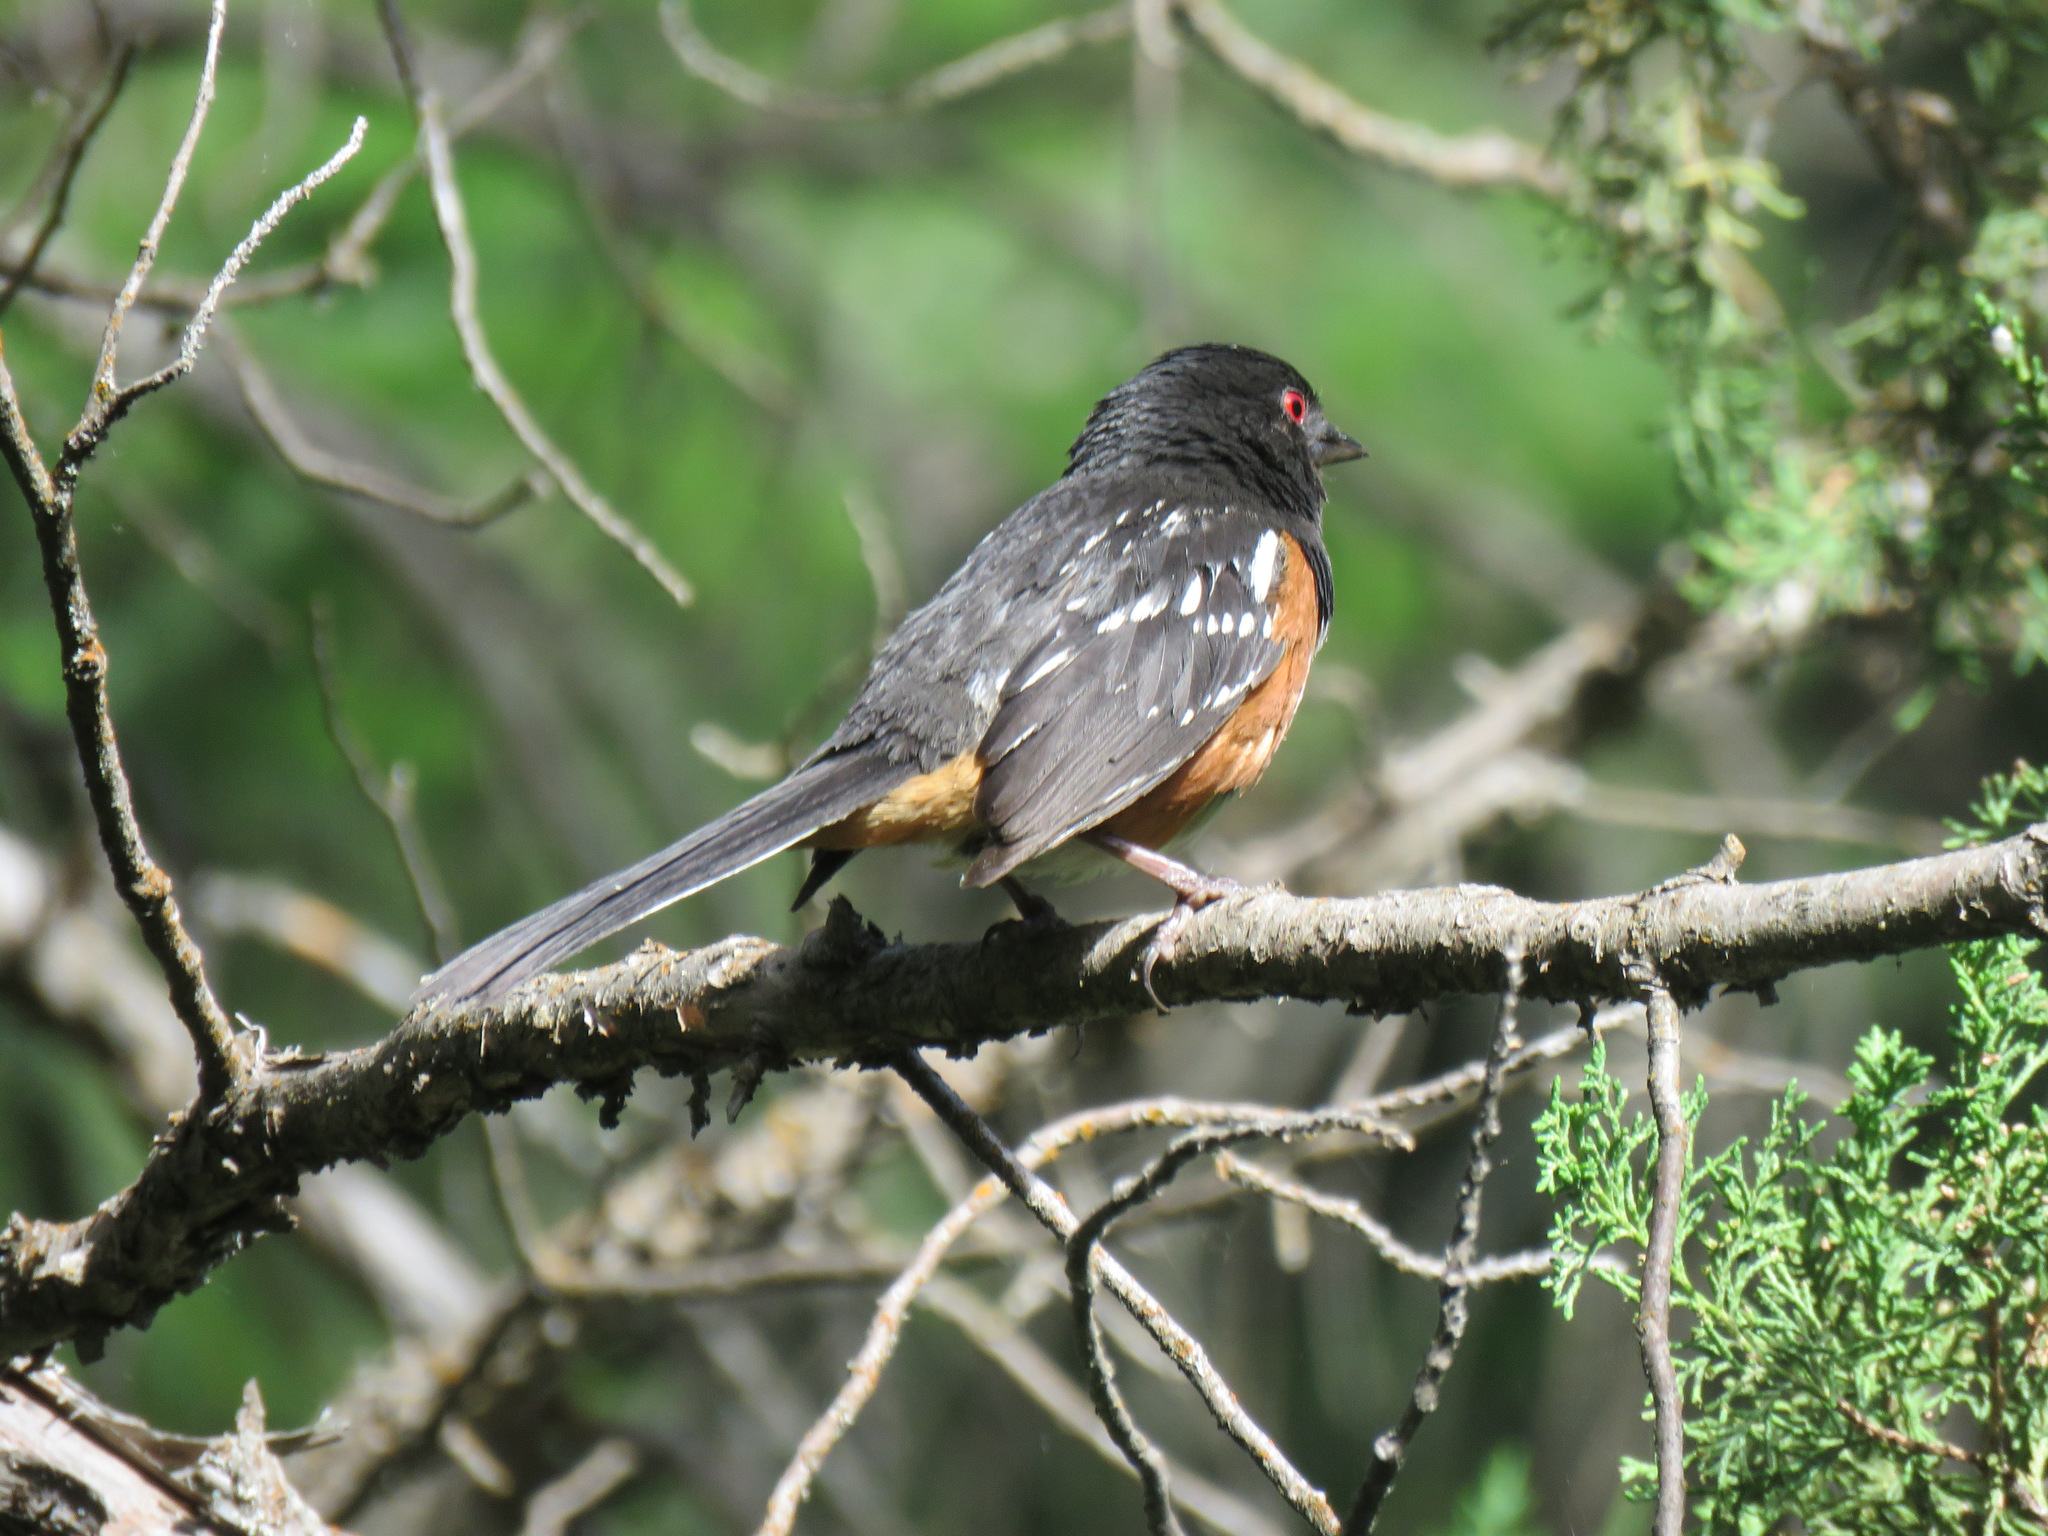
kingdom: Animalia
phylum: Chordata
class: Aves
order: Passeriformes
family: Passerellidae
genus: Pipilo
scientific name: Pipilo maculatus
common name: Spotted towhee
